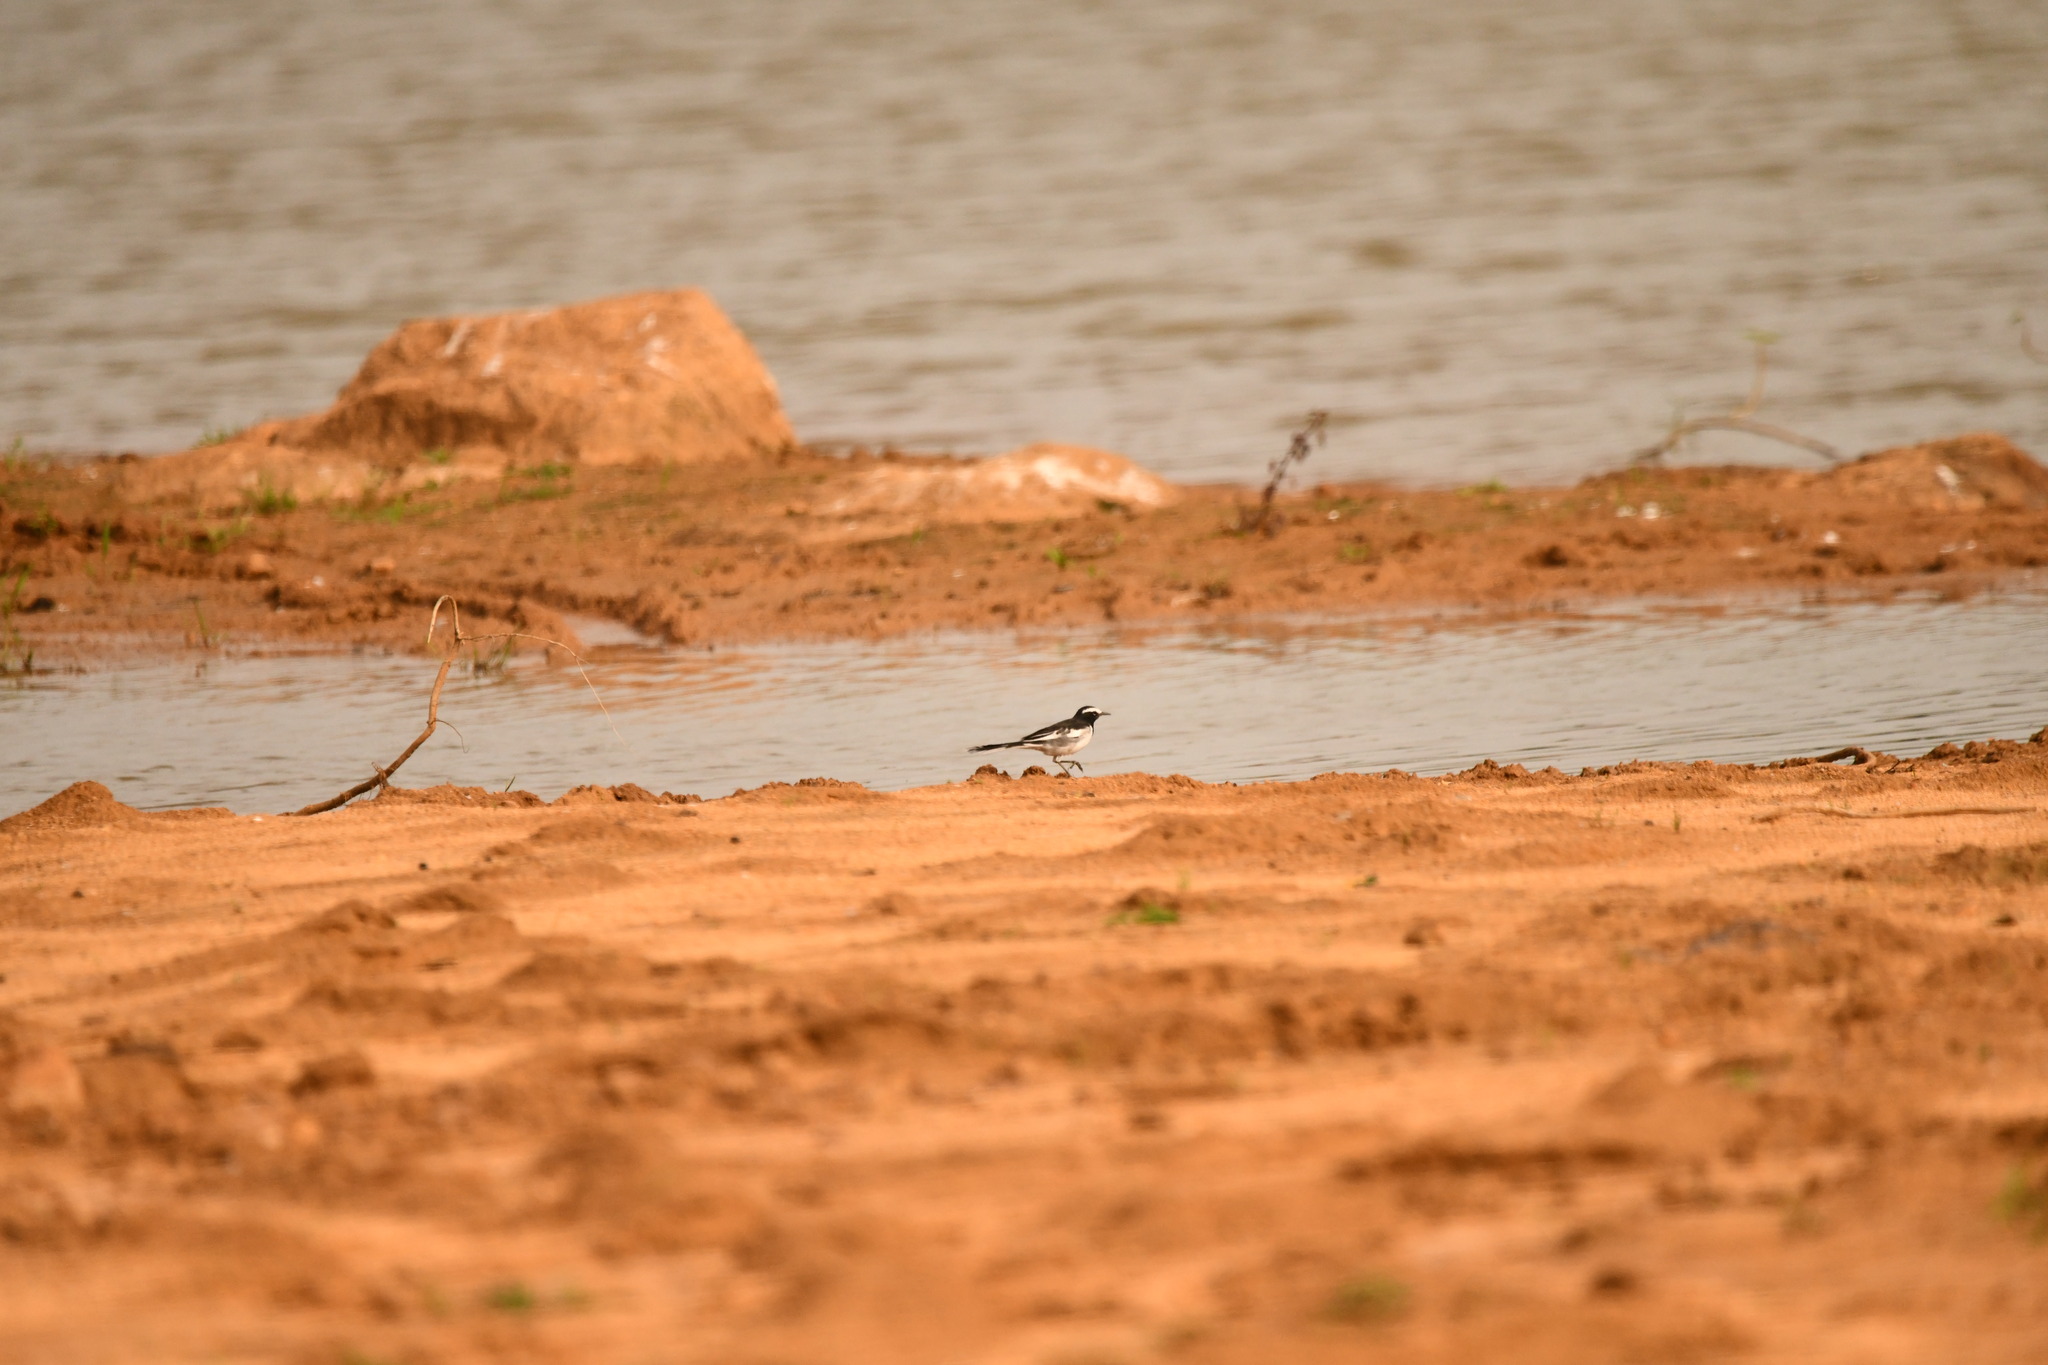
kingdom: Animalia
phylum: Chordata
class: Aves
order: Passeriformes
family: Motacillidae
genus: Motacilla
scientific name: Motacilla maderaspatensis
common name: White-browed wagtail
